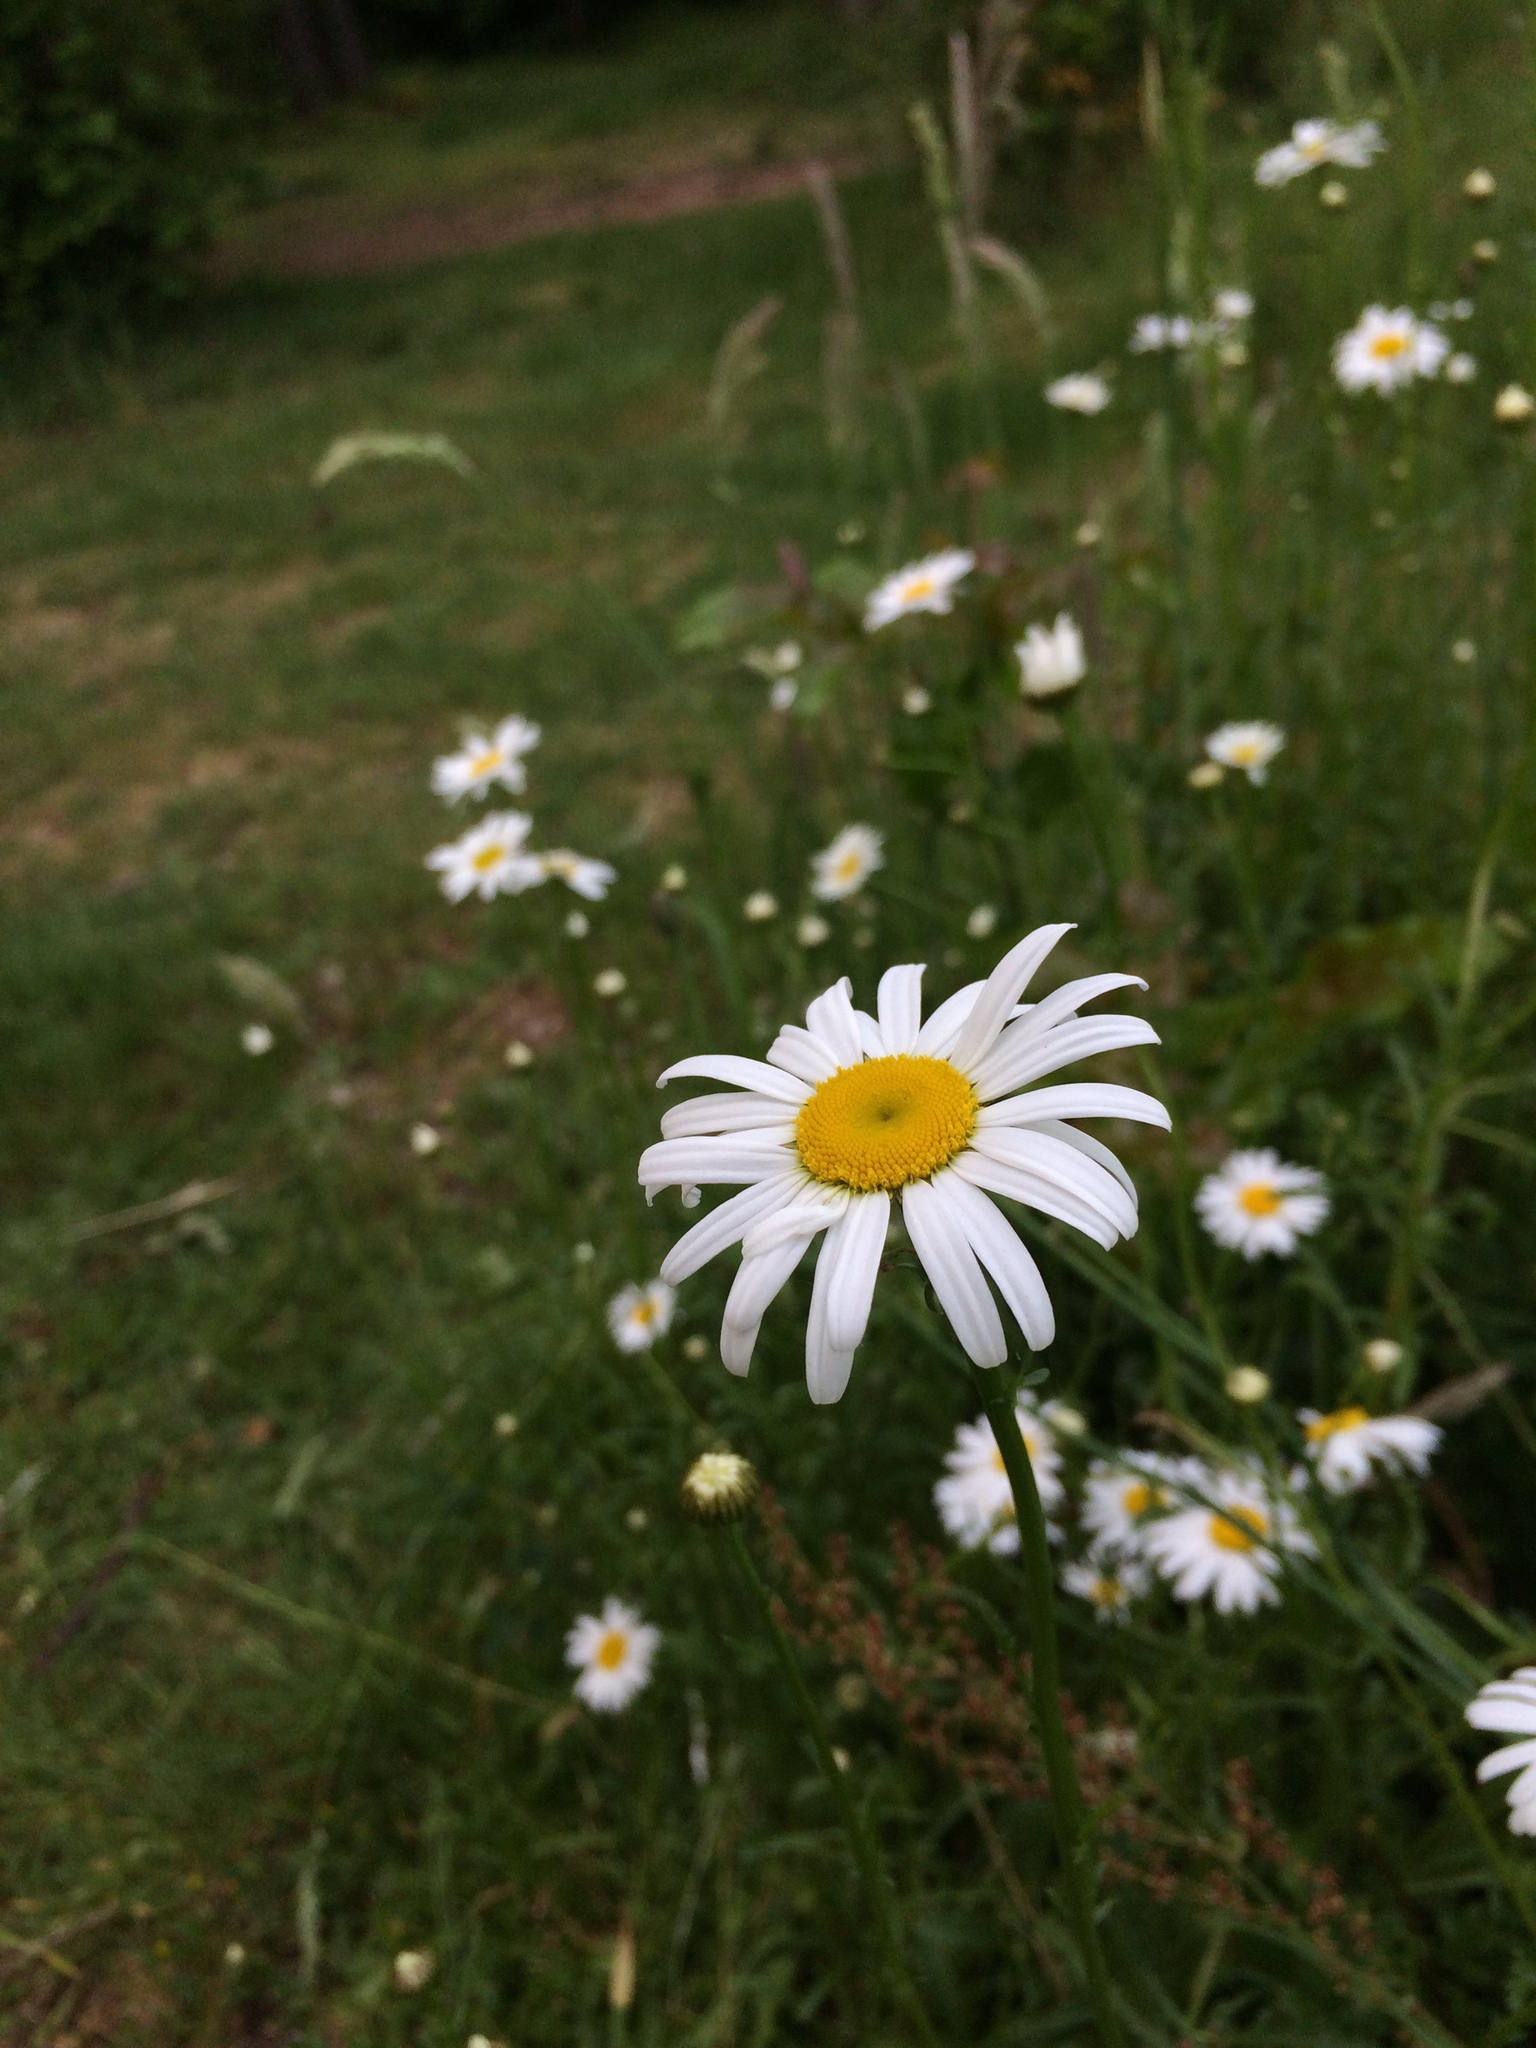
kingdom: Plantae
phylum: Tracheophyta
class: Magnoliopsida
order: Asterales
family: Asteraceae
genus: Leucanthemum
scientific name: Leucanthemum vulgare
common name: Oxeye daisy
